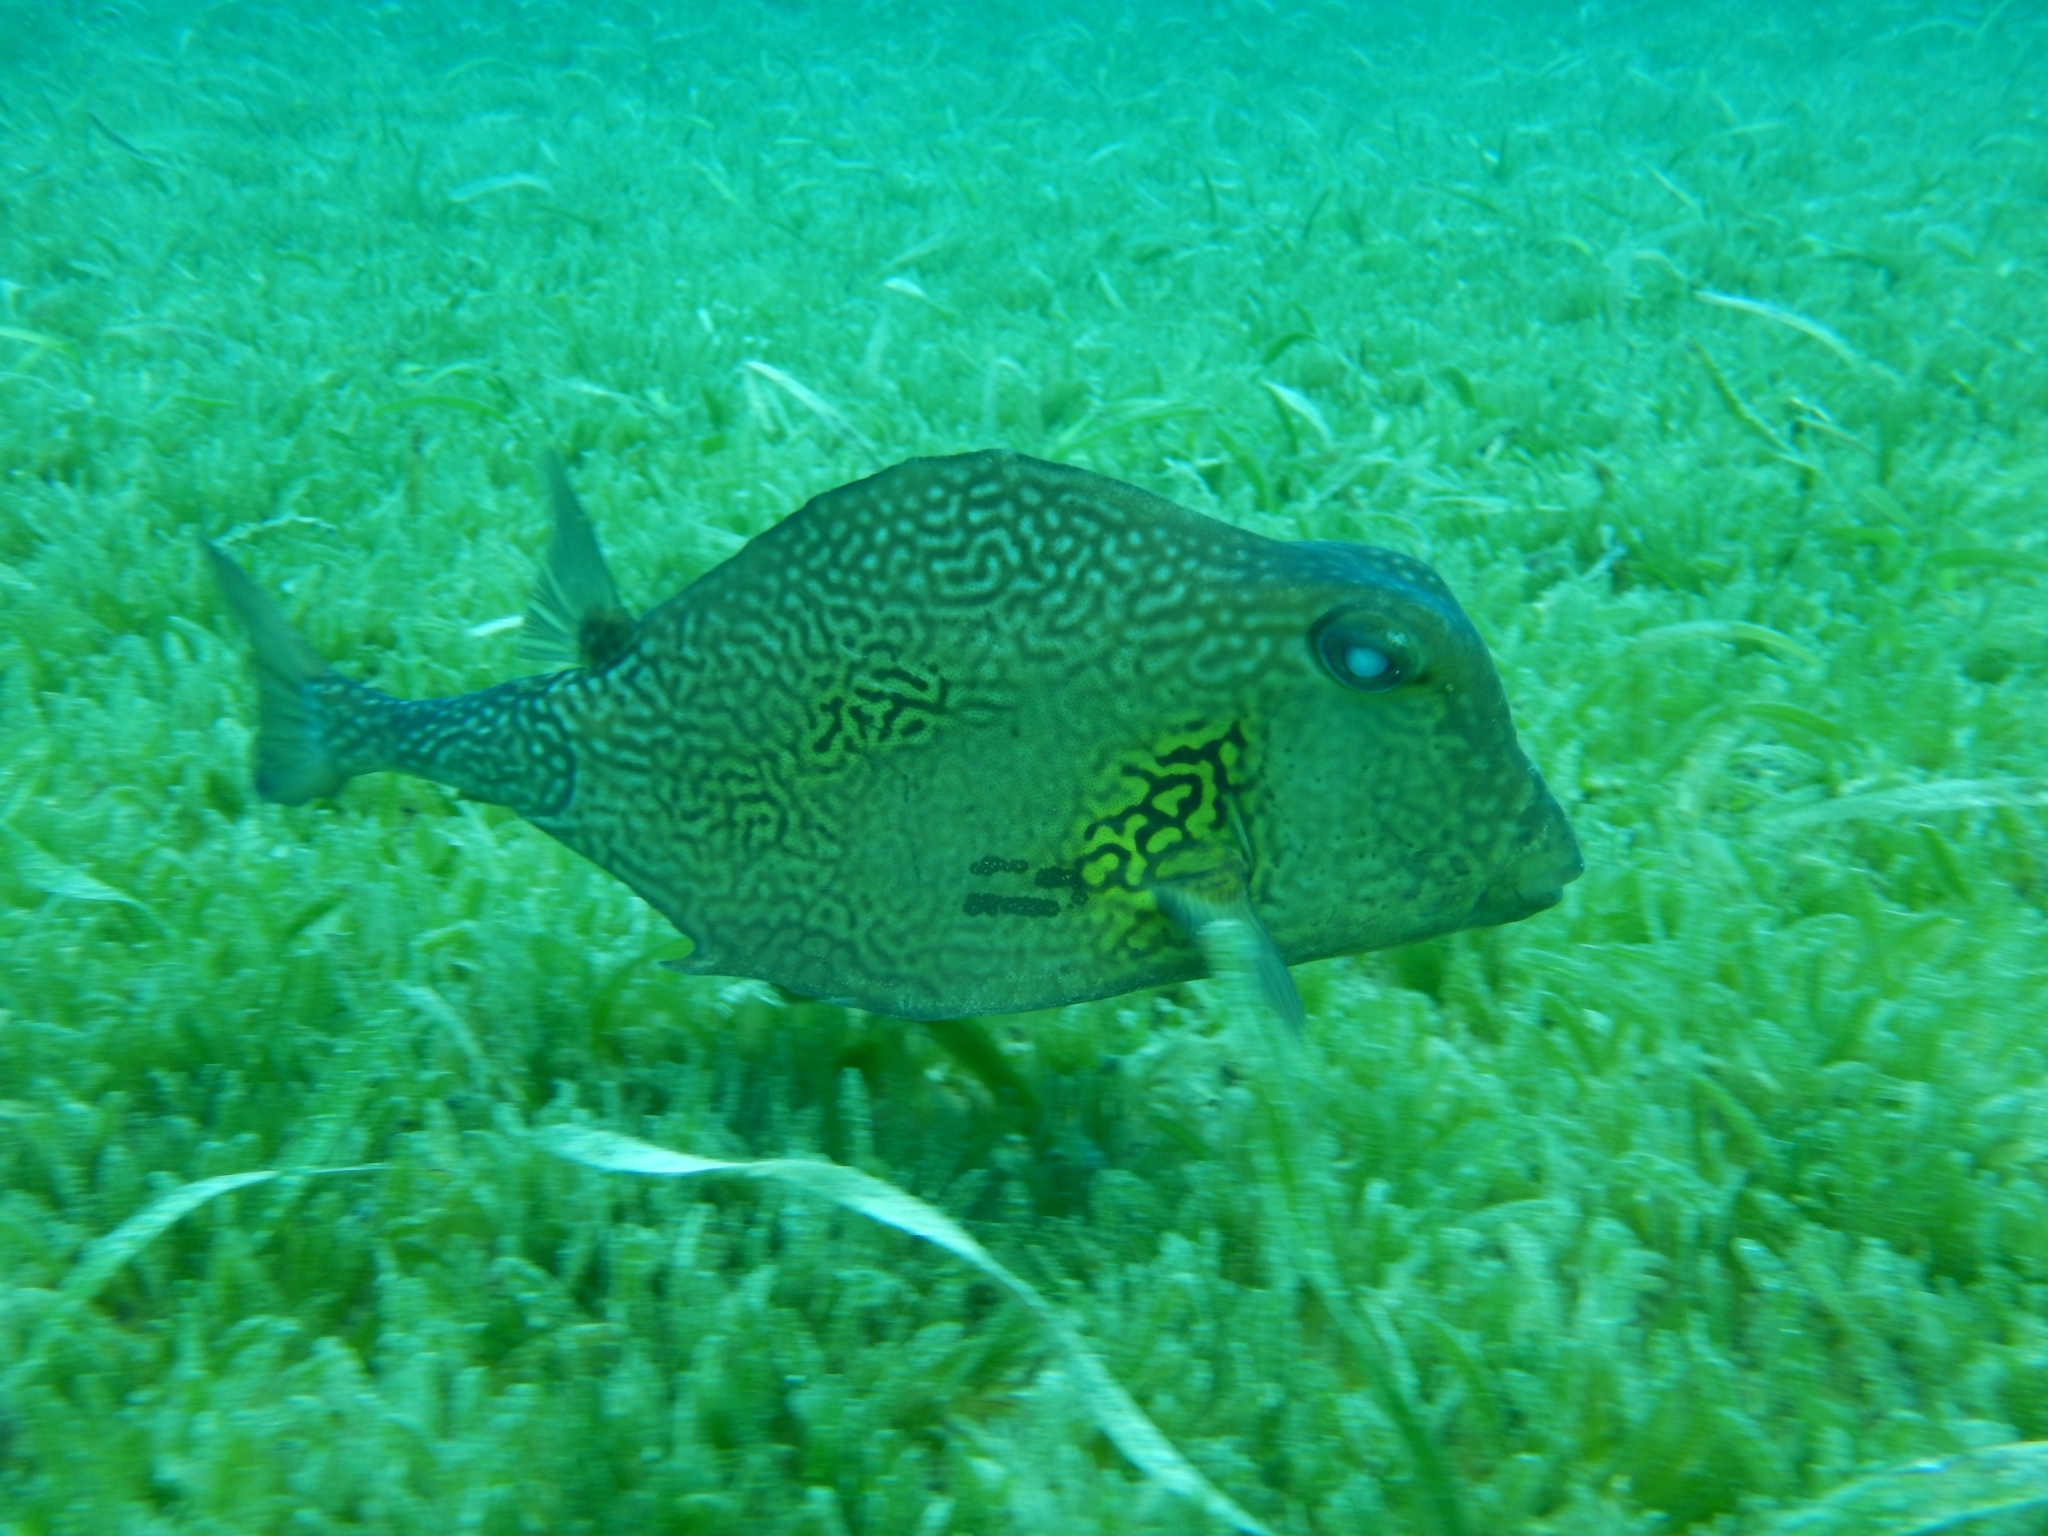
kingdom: Animalia
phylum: Chordata
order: Tetraodontiformes
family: Ostraciidae
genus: Lactophrys
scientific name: Lactophrys trigonus
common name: Buffalo trunkfish
